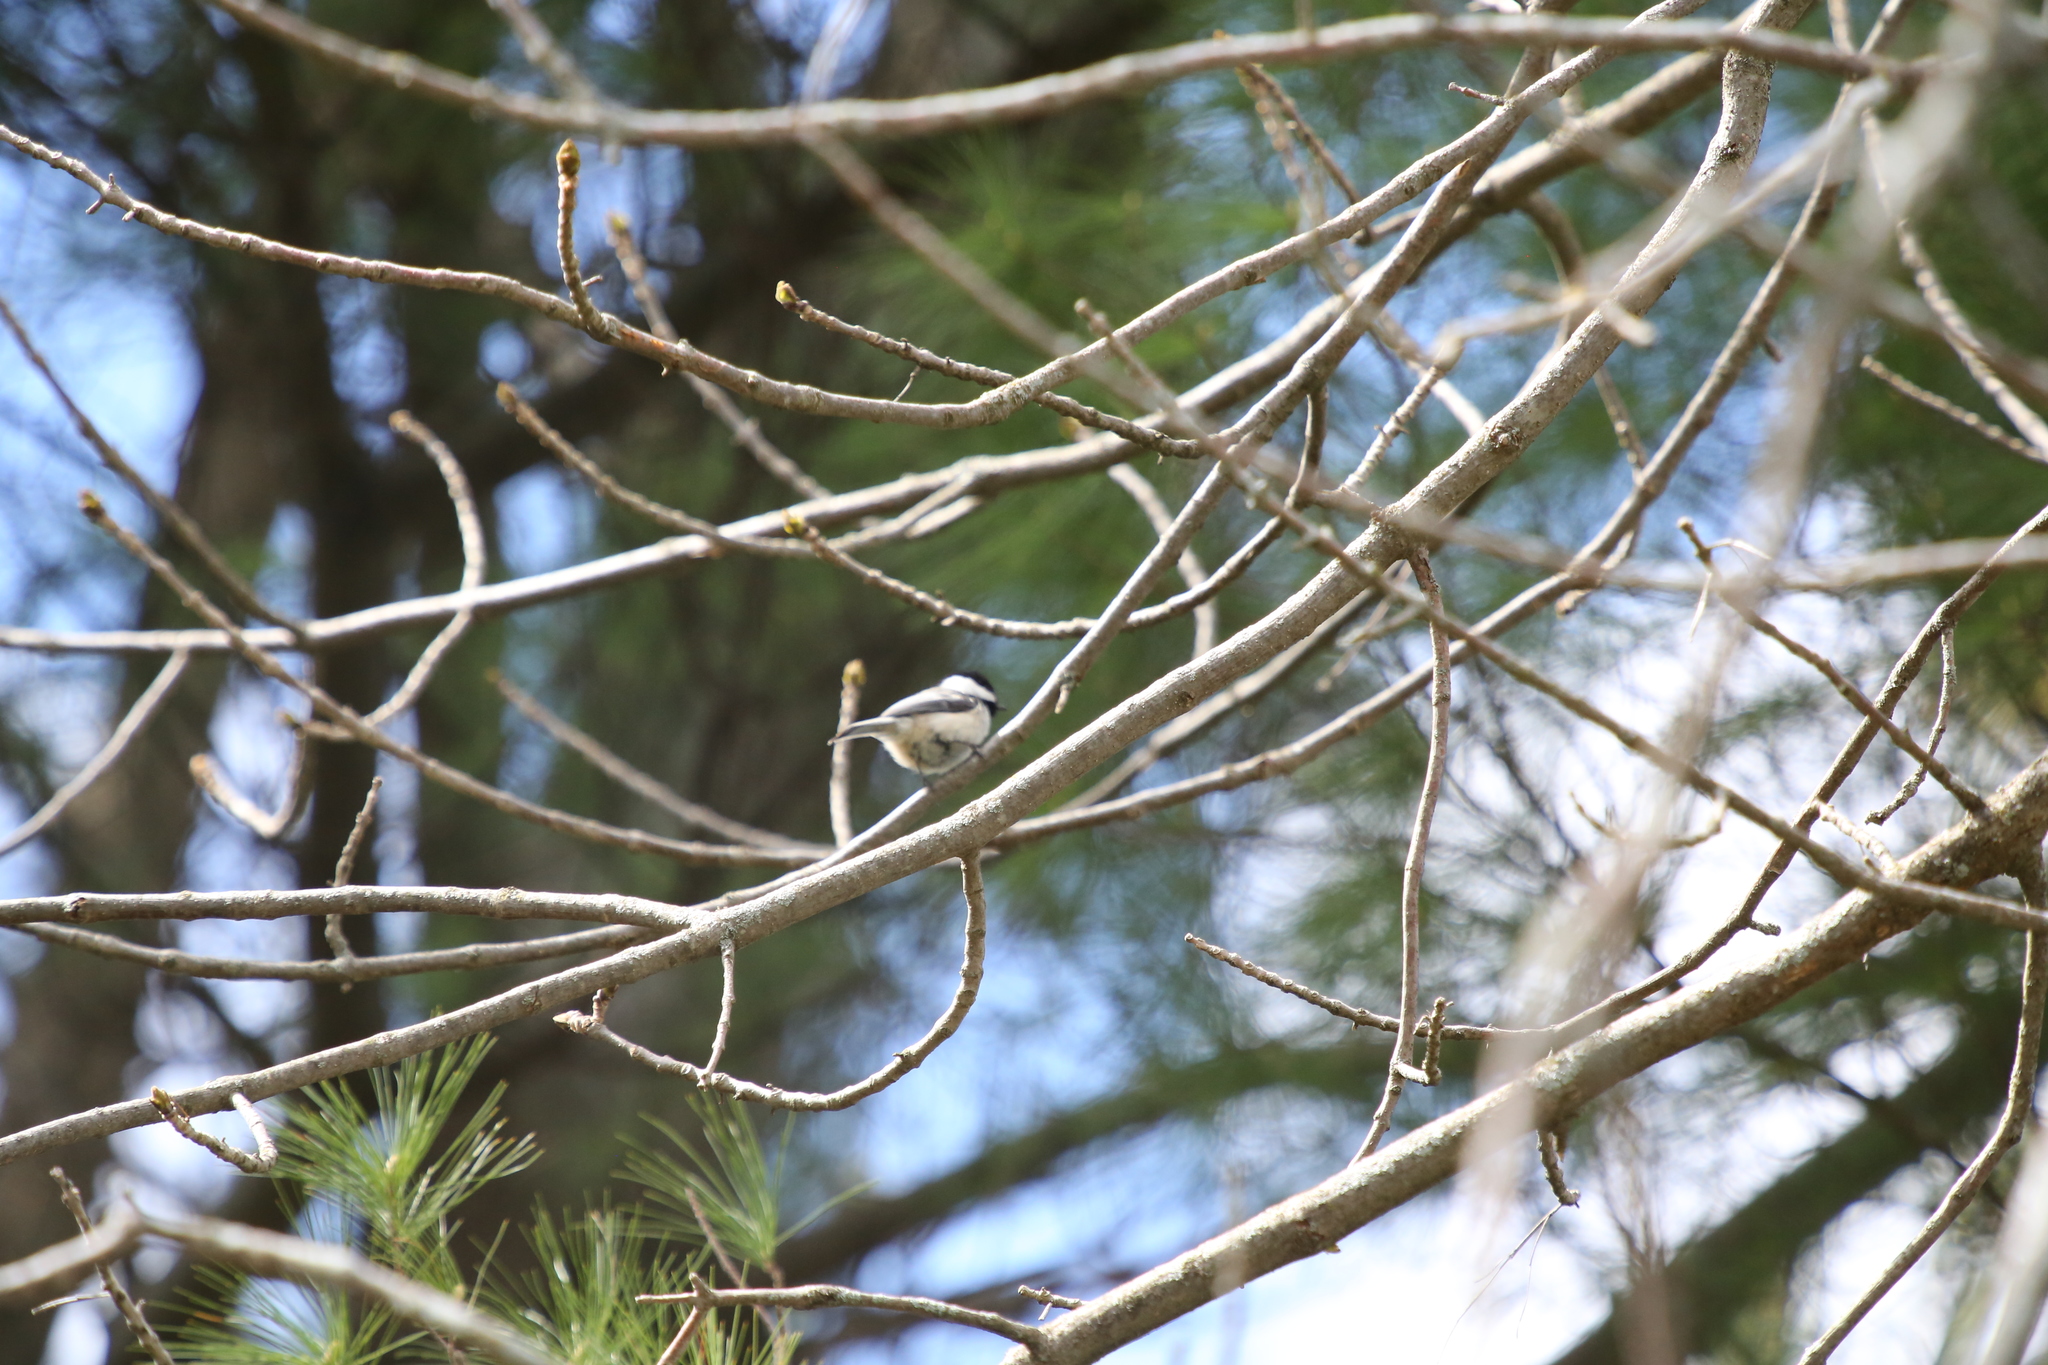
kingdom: Animalia
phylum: Chordata
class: Aves
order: Passeriformes
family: Paridae
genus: Poecile
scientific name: Poecile atricapillus
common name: Black-capped chickadee
